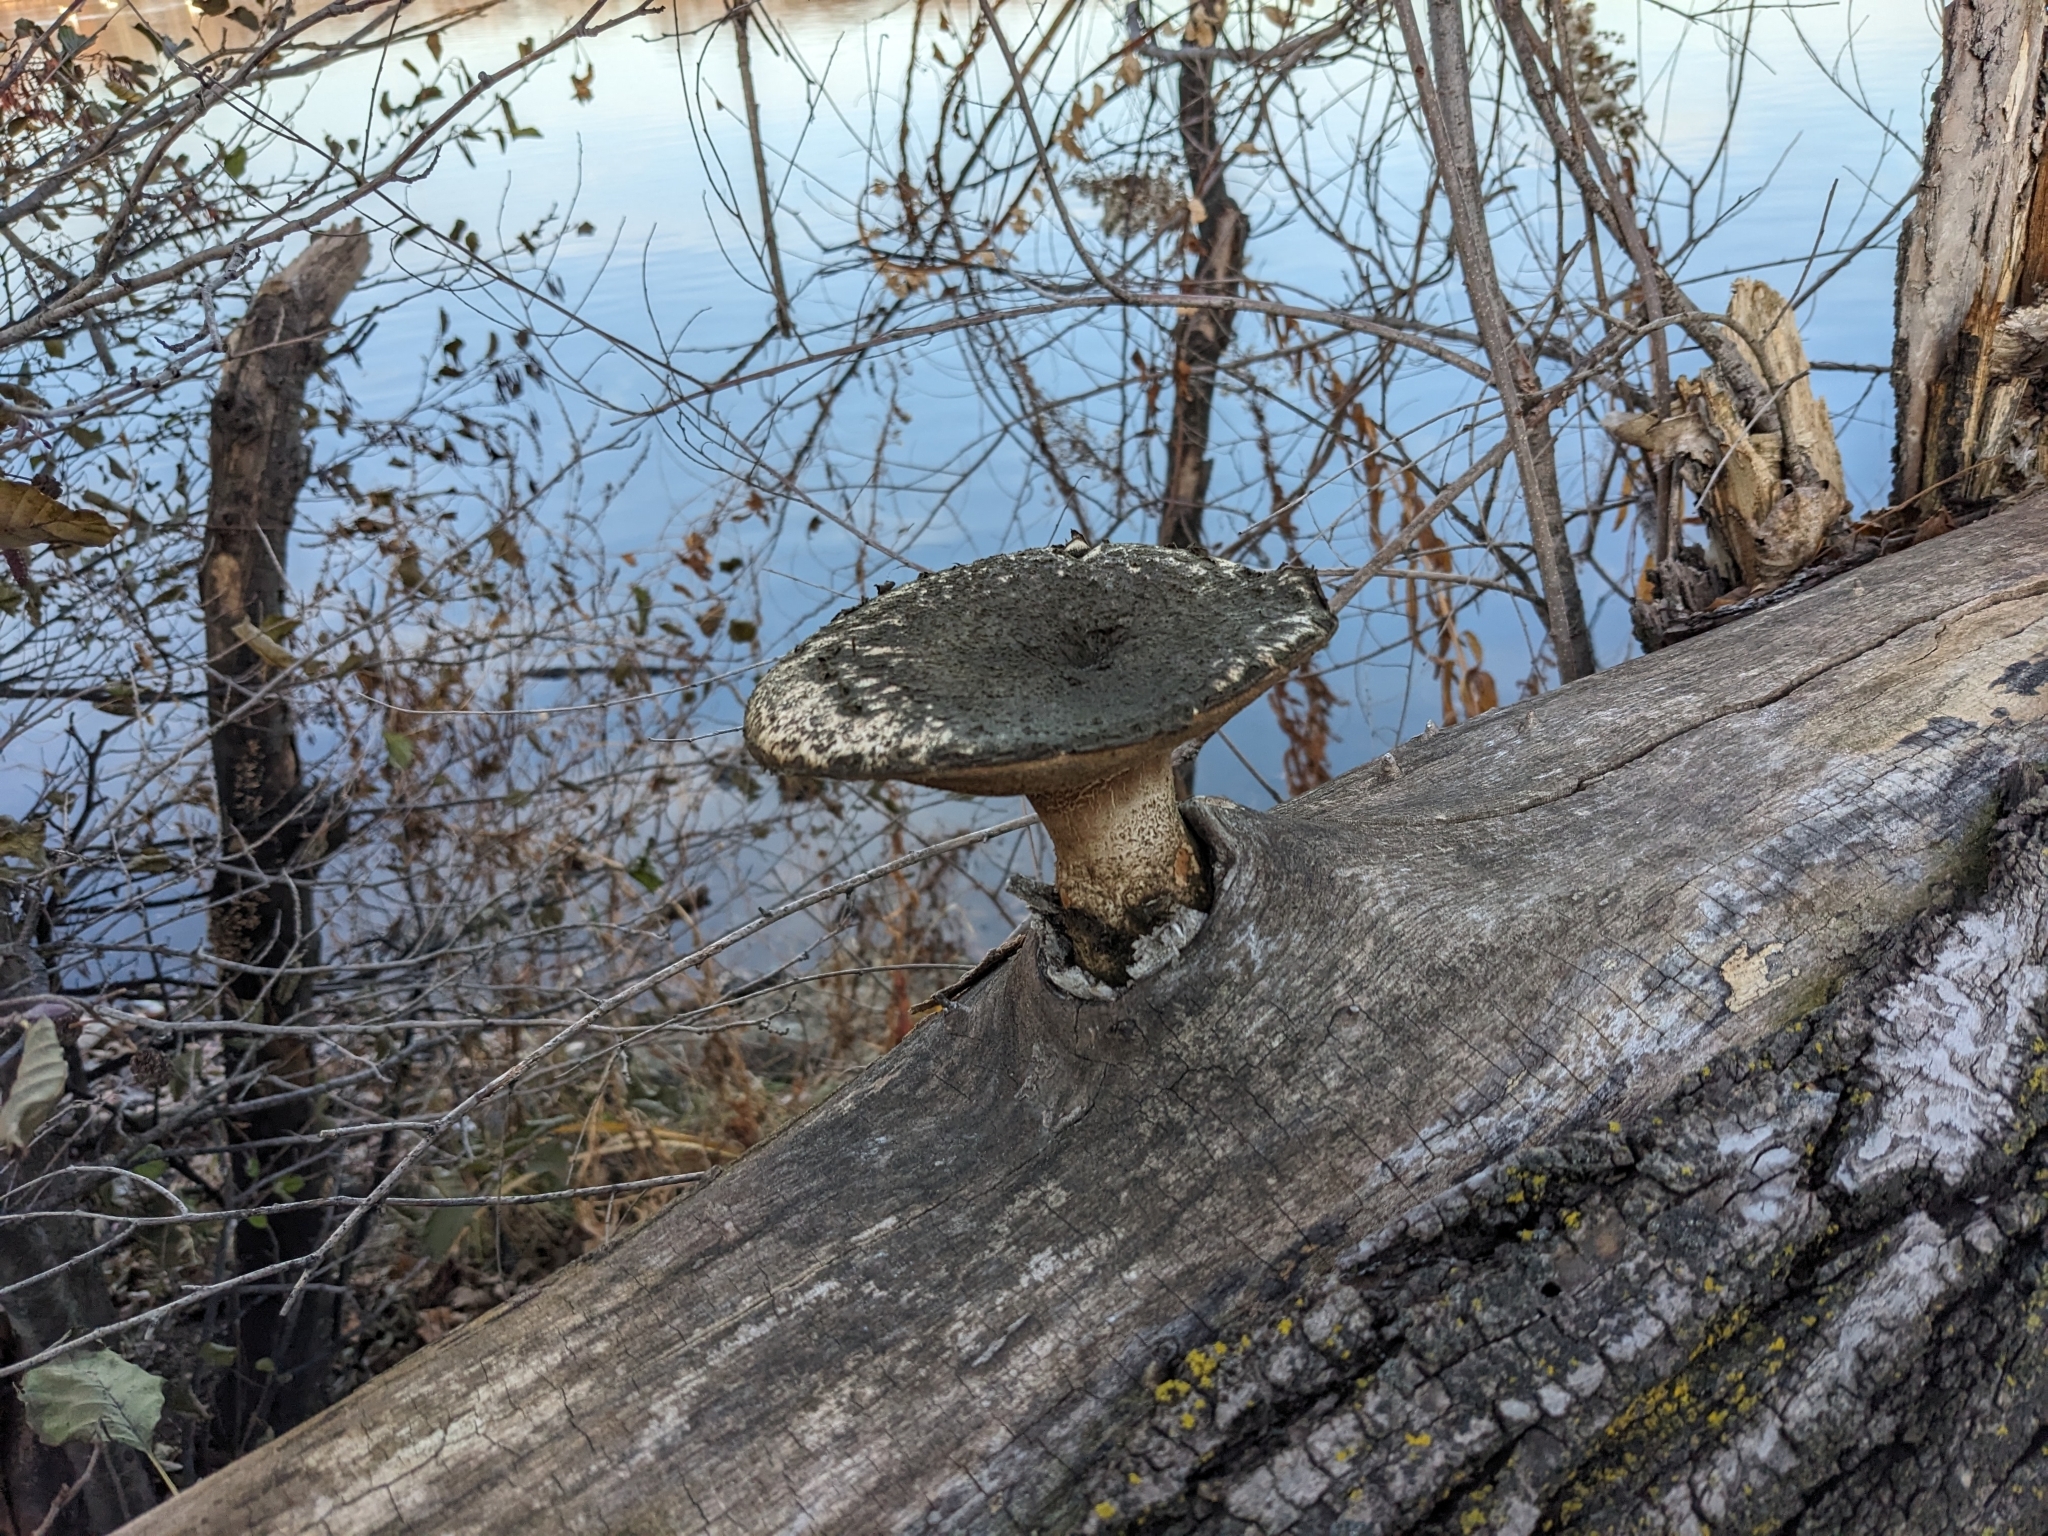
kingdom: Fungi
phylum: Basidiomycota
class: Agaricomycetes
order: Polyporales
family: Polyporaceae
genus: Cerioporus
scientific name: Cerioporus squamosus
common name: Dryad's saddle
